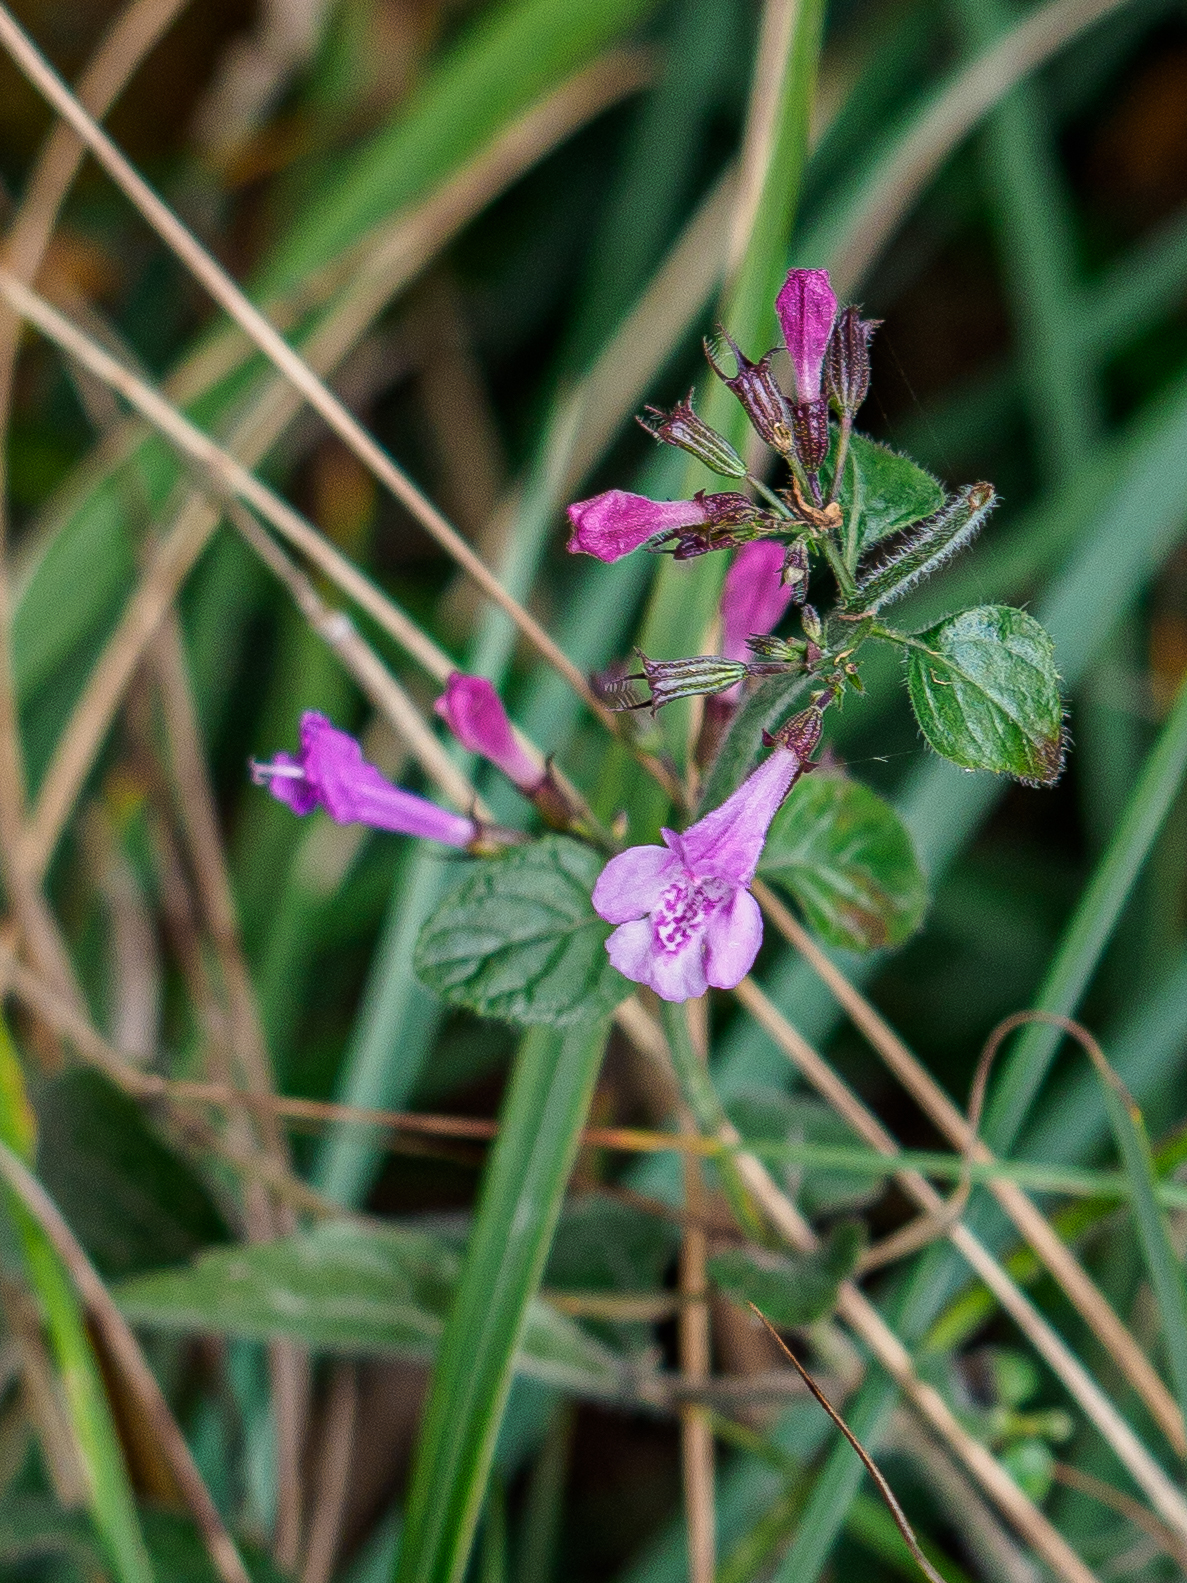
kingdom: Plantae
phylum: Tracheophyta
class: Magnoliopsida
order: Lamiales
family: Lamiaceae
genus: Clinopodium
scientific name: Clinopodium menthifolium
